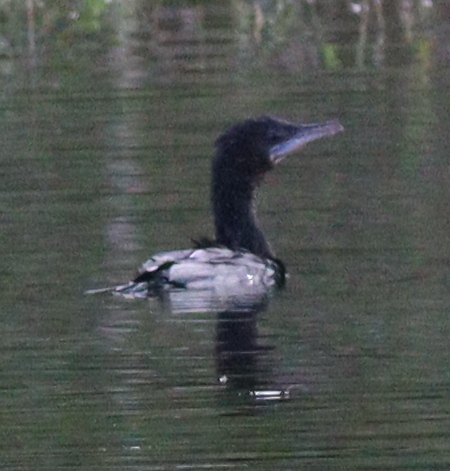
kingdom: Animalia
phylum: Chordata
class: Aves
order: Suliformes
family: Phalacrocoracidae
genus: Microcarbo
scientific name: Microcarbo niger
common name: Little cormorant
